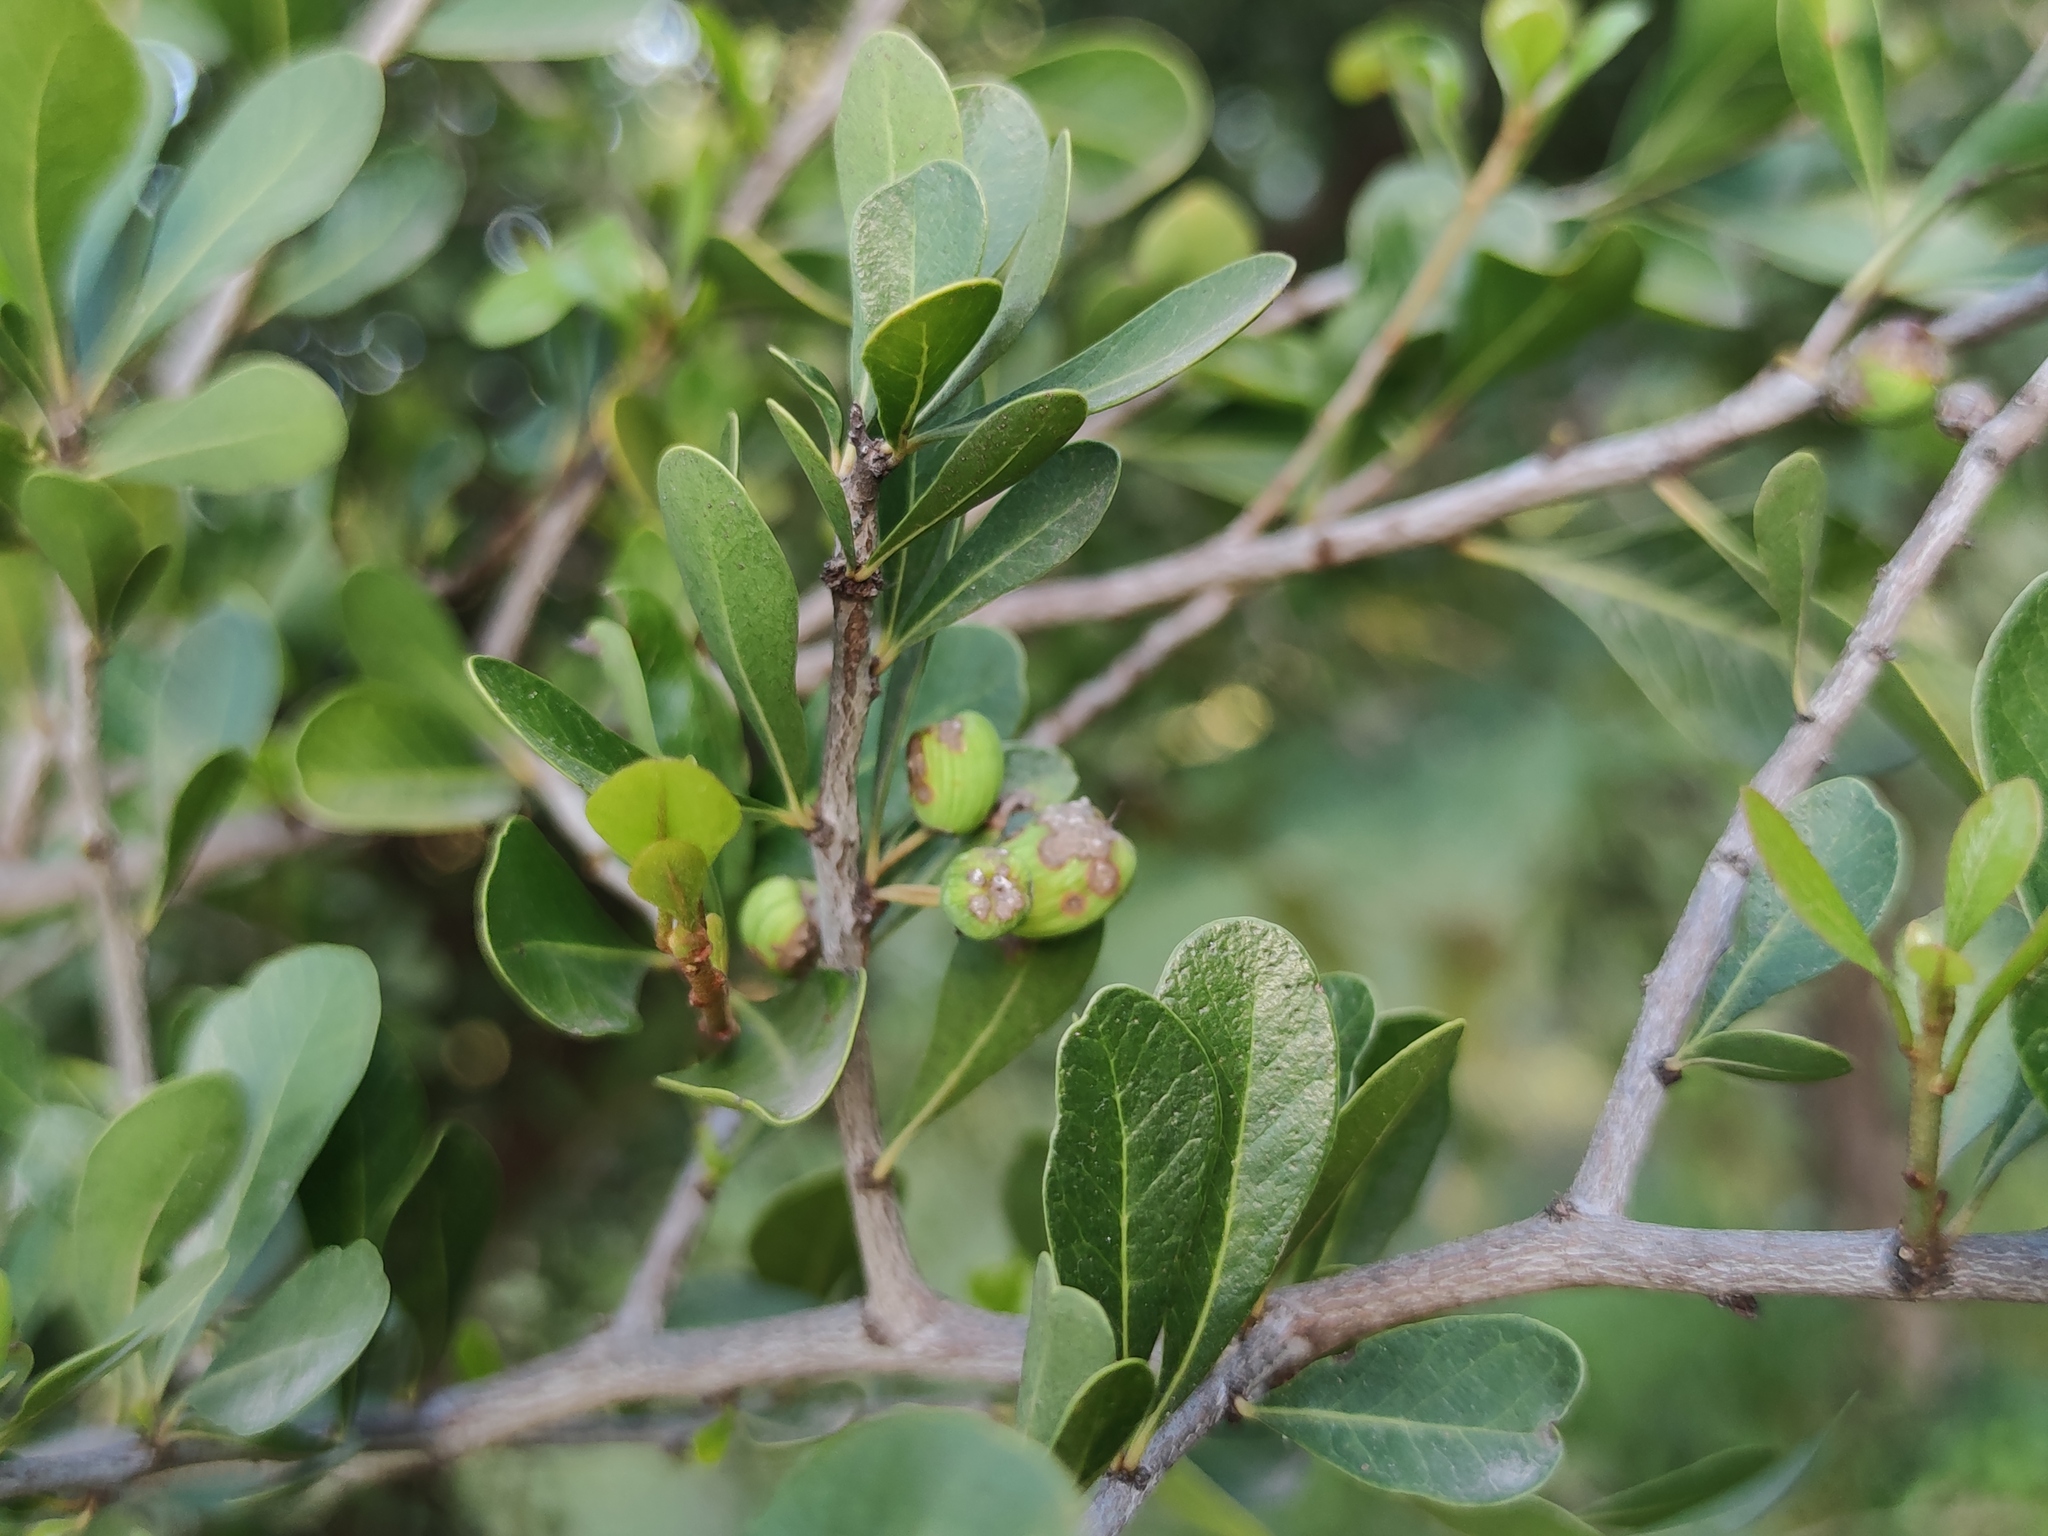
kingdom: Plantae
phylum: Tracheophyta
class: Magnoliopsida
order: Rosales
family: Rhamnaceae
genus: Condalia
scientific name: Condalia hookeri
